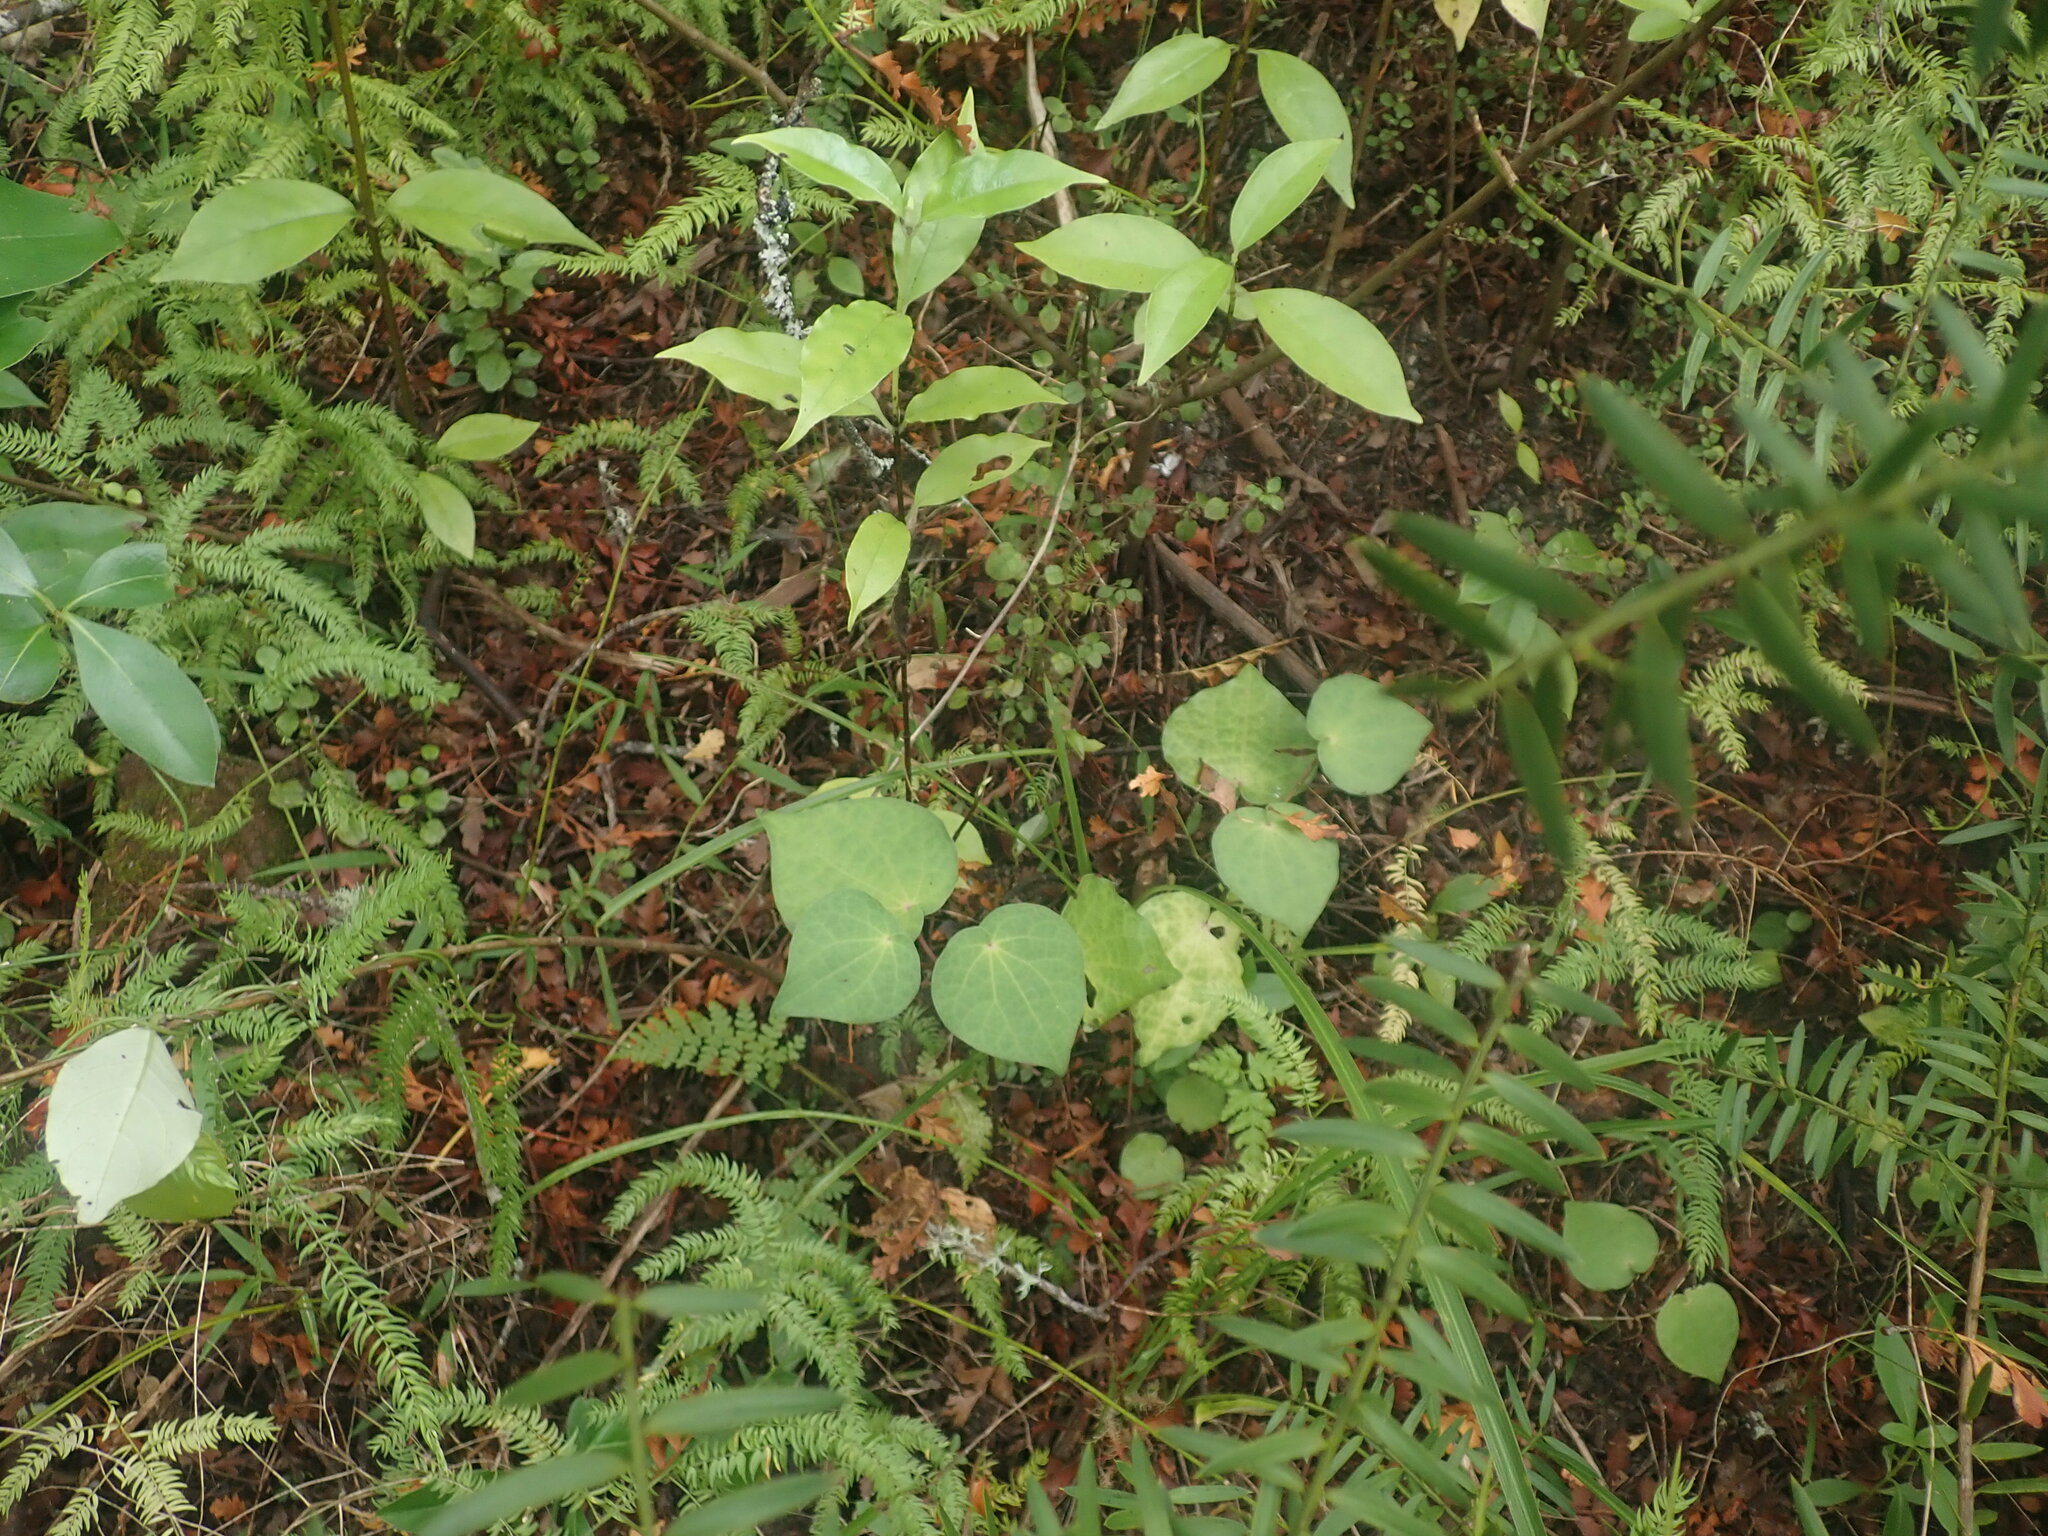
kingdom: Plantae
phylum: Tracheophyta
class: Magnoliopsida
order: Piperales
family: Piperaceae
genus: Macropiper
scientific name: Macropiper excelsum
